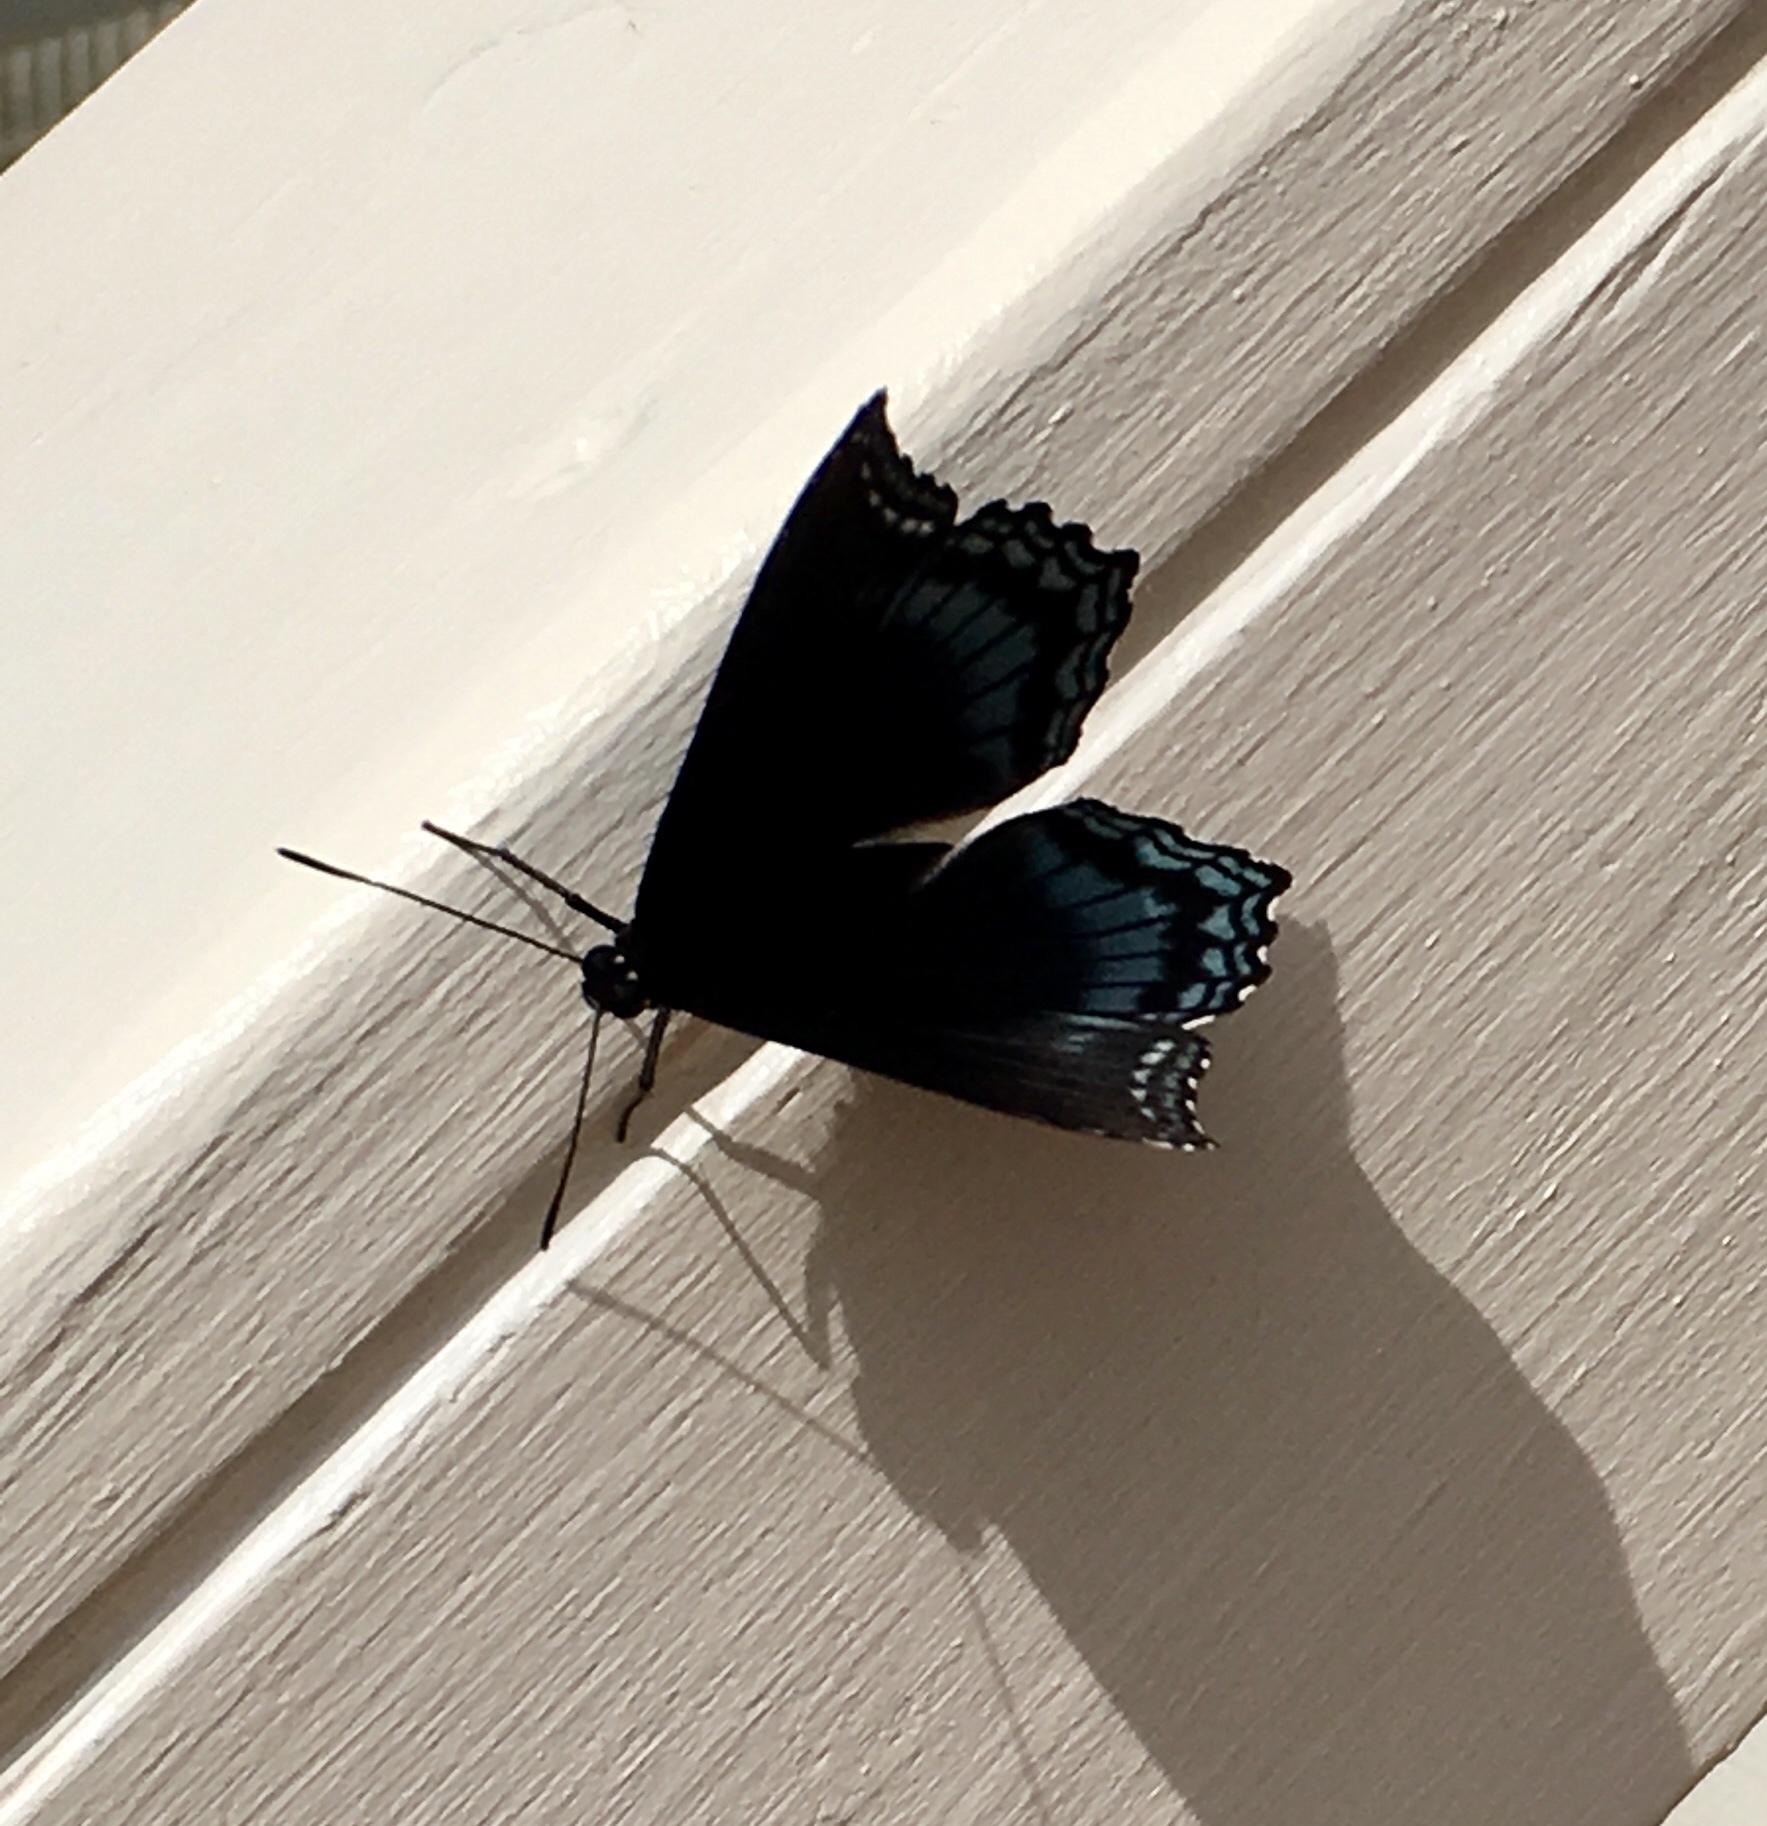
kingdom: Animalia
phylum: Arthropoda
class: Insecta
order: Lepidoptera
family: Nymphalidae
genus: Limenitis
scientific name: Limenitis astyanax
